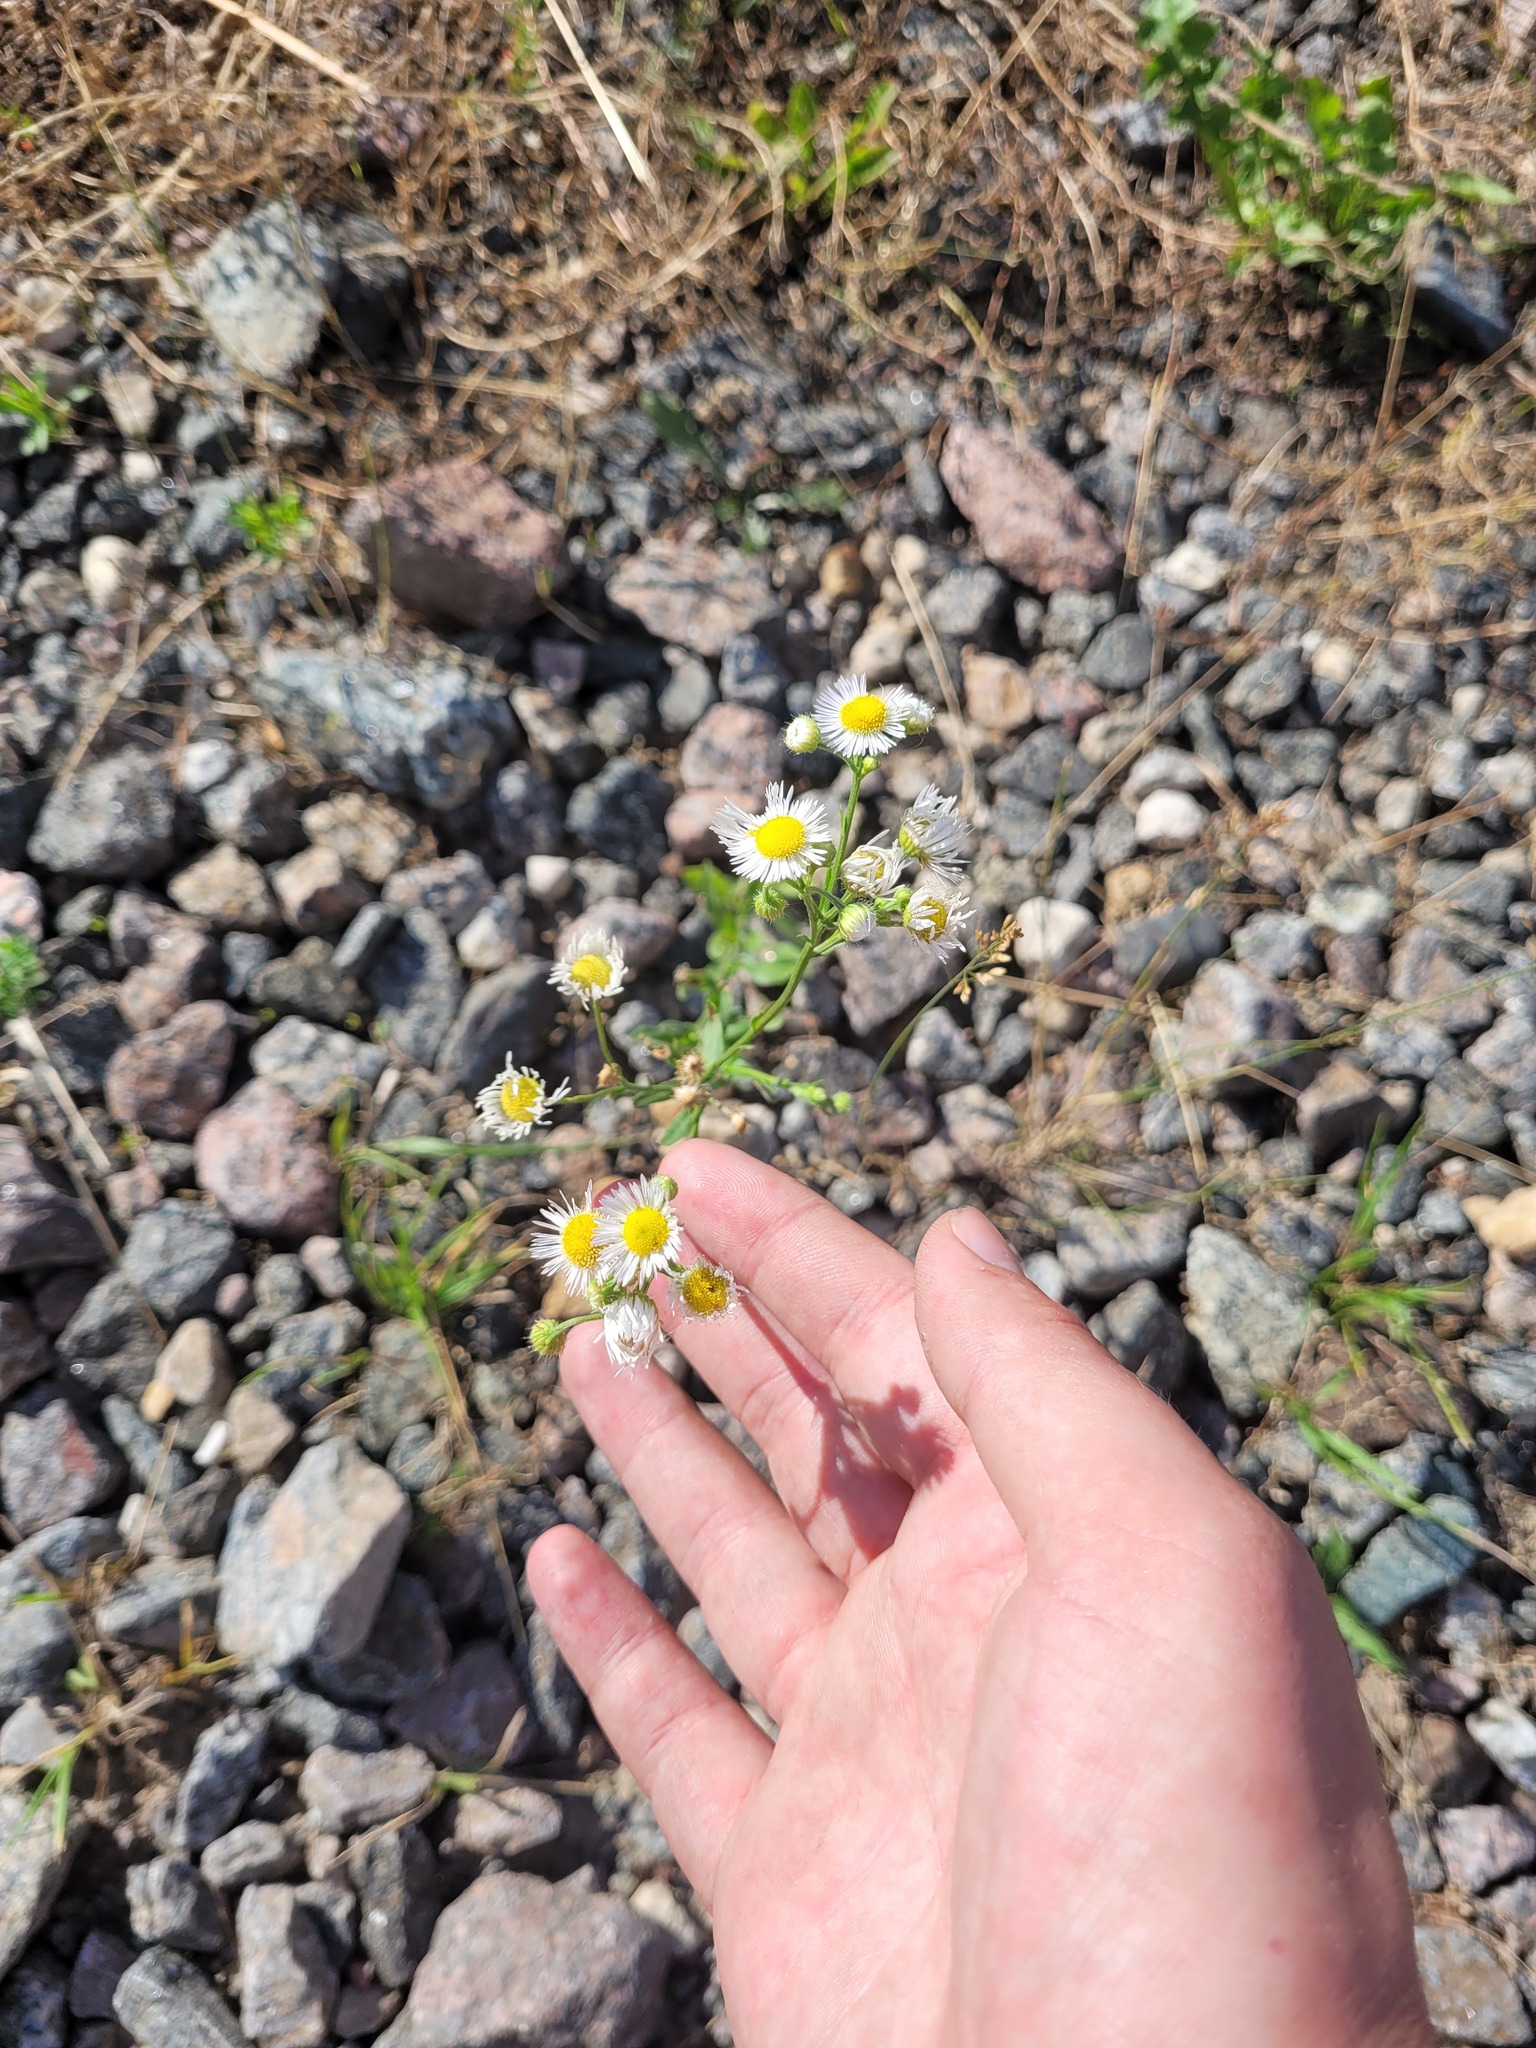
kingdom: Plantae
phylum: Tracheophyta
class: Magnoliopsida
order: Asterales
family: Asteraceae
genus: Erigeron
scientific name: Erigeron annuus
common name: Tall fleabane
